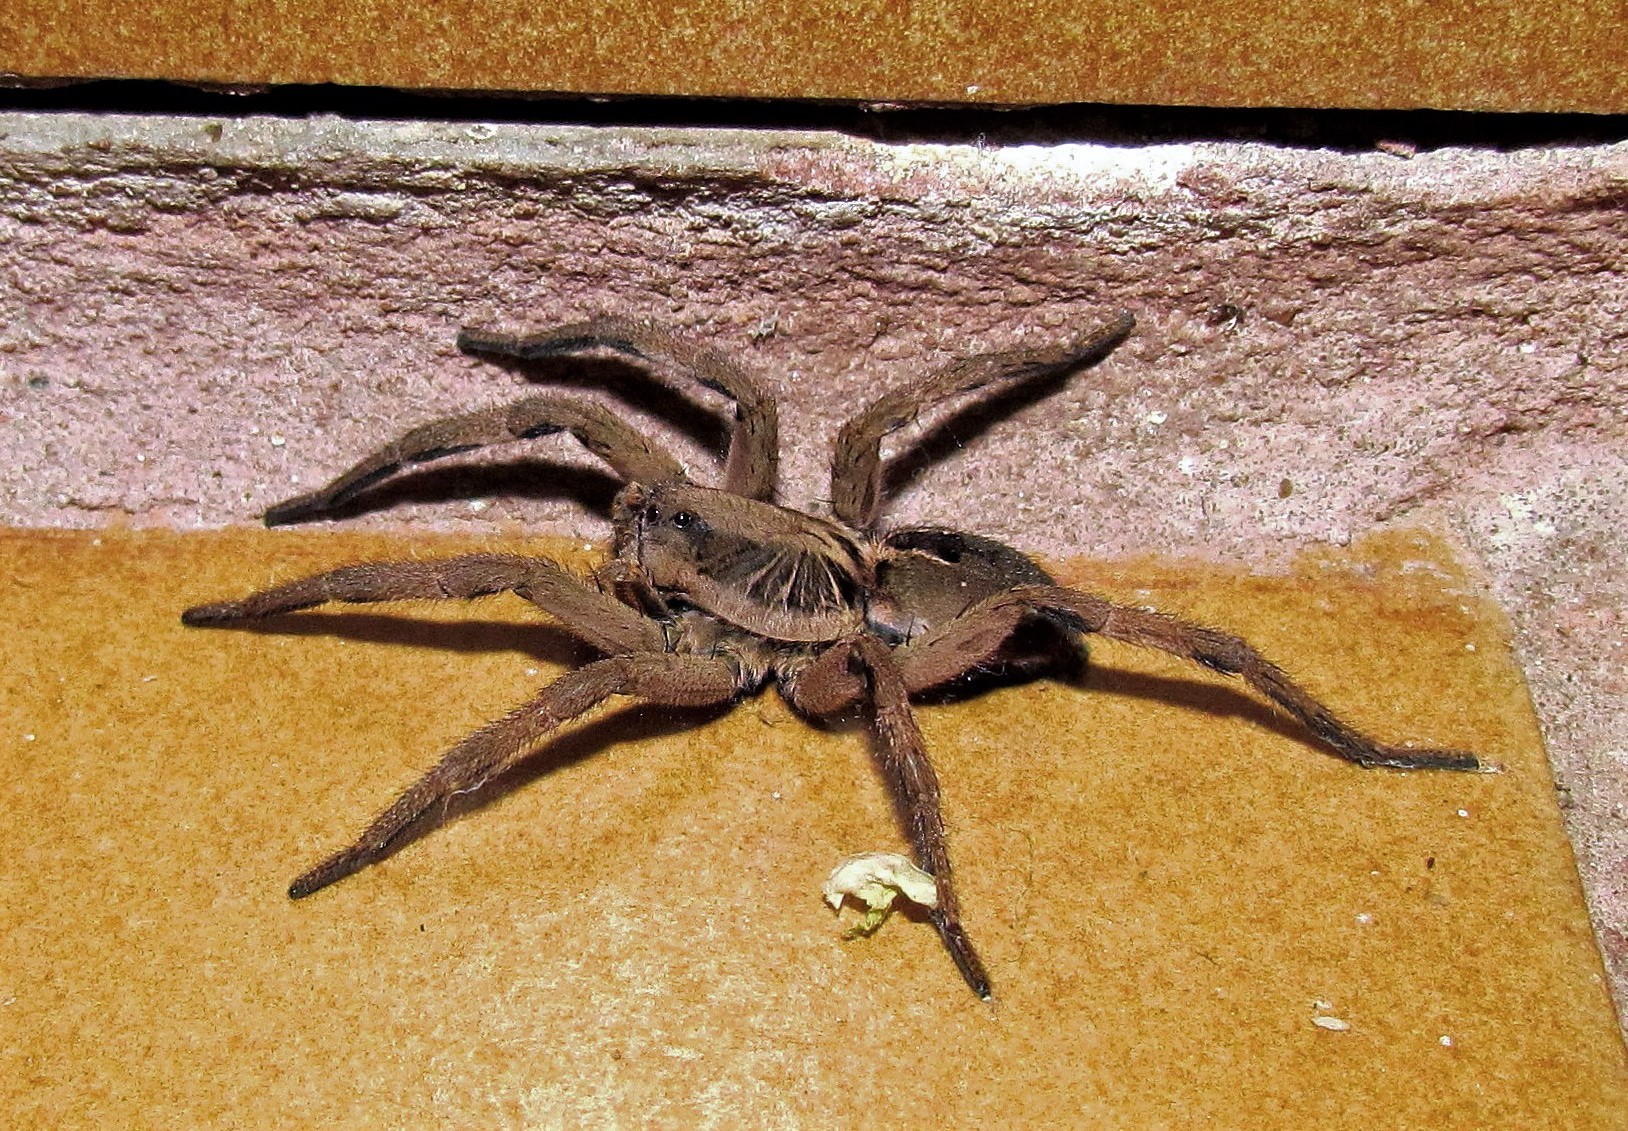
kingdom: Animalia
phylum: Arthropoda
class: Arachnida
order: Araneae
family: Lycosidae
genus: Lycosa
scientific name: Lycosa erythrognatha
